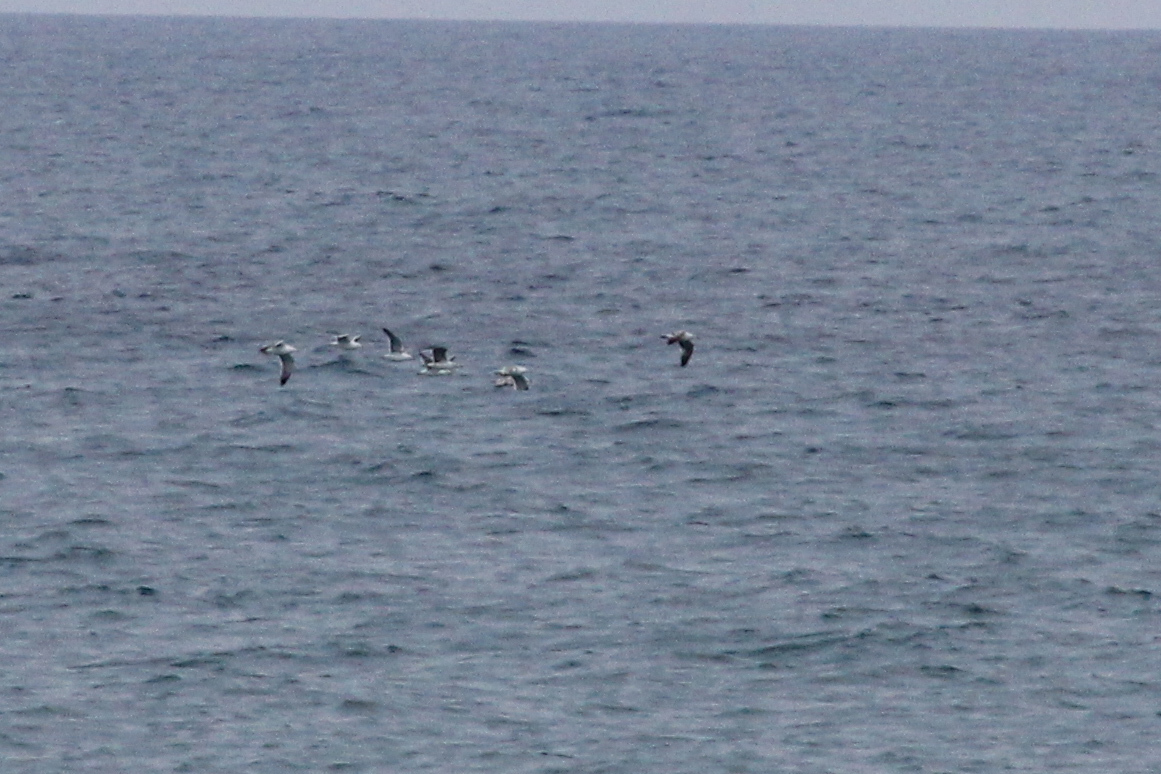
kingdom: Animalia
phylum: Chordata
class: Aves
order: Charadriiformes
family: Laridae
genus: Larus
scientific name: Larus michahellis
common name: Yellow-legged gull
